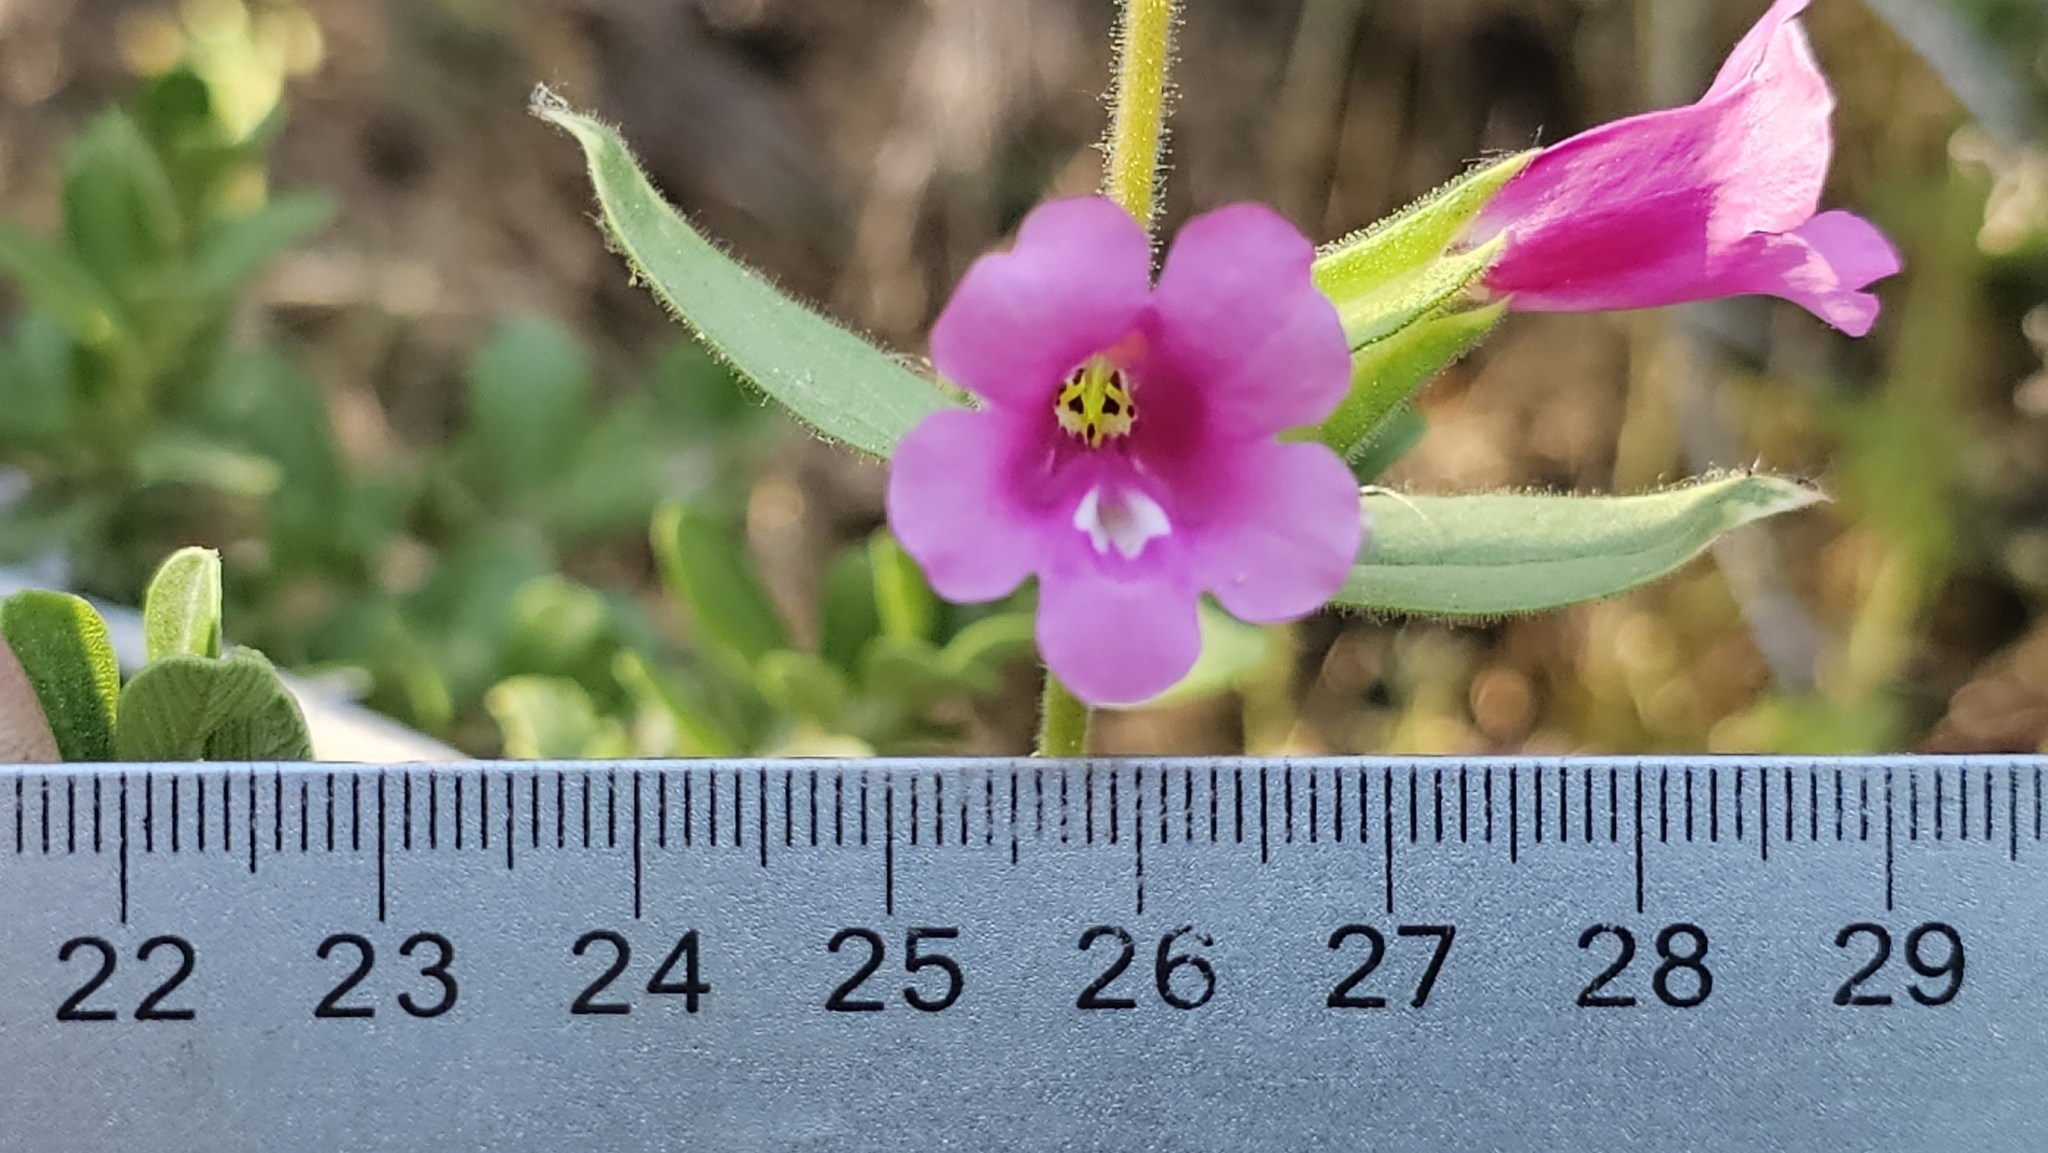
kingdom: Plantae
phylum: Tracheophyta
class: Magnoliopsida
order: Lamiales
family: Phrymaceae
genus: Diplacus
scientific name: Diplacus bolanderi
